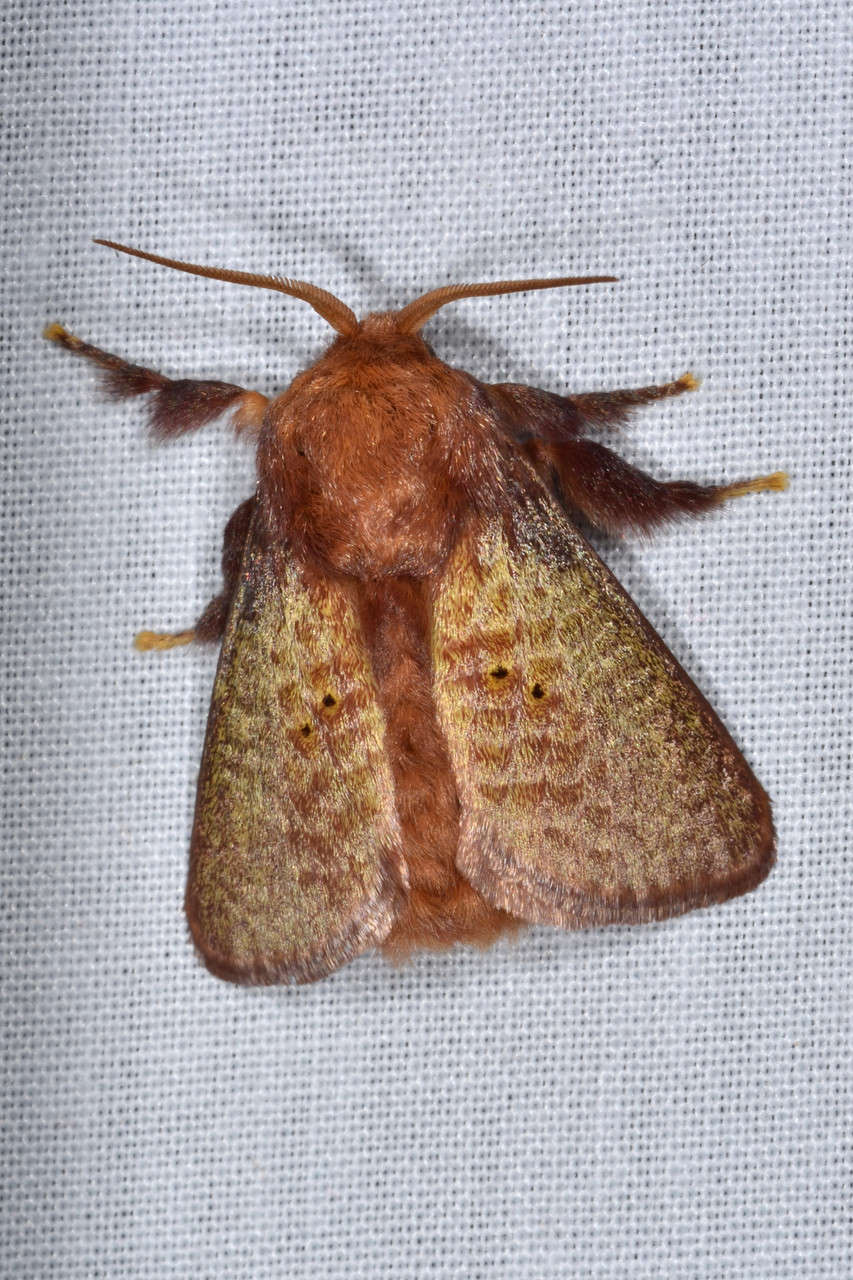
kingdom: Animalia
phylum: Arthropoda
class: Insecta
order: Lepidoptera
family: Limacodidae
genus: Doratifera
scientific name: Doratifera quadriguttata
